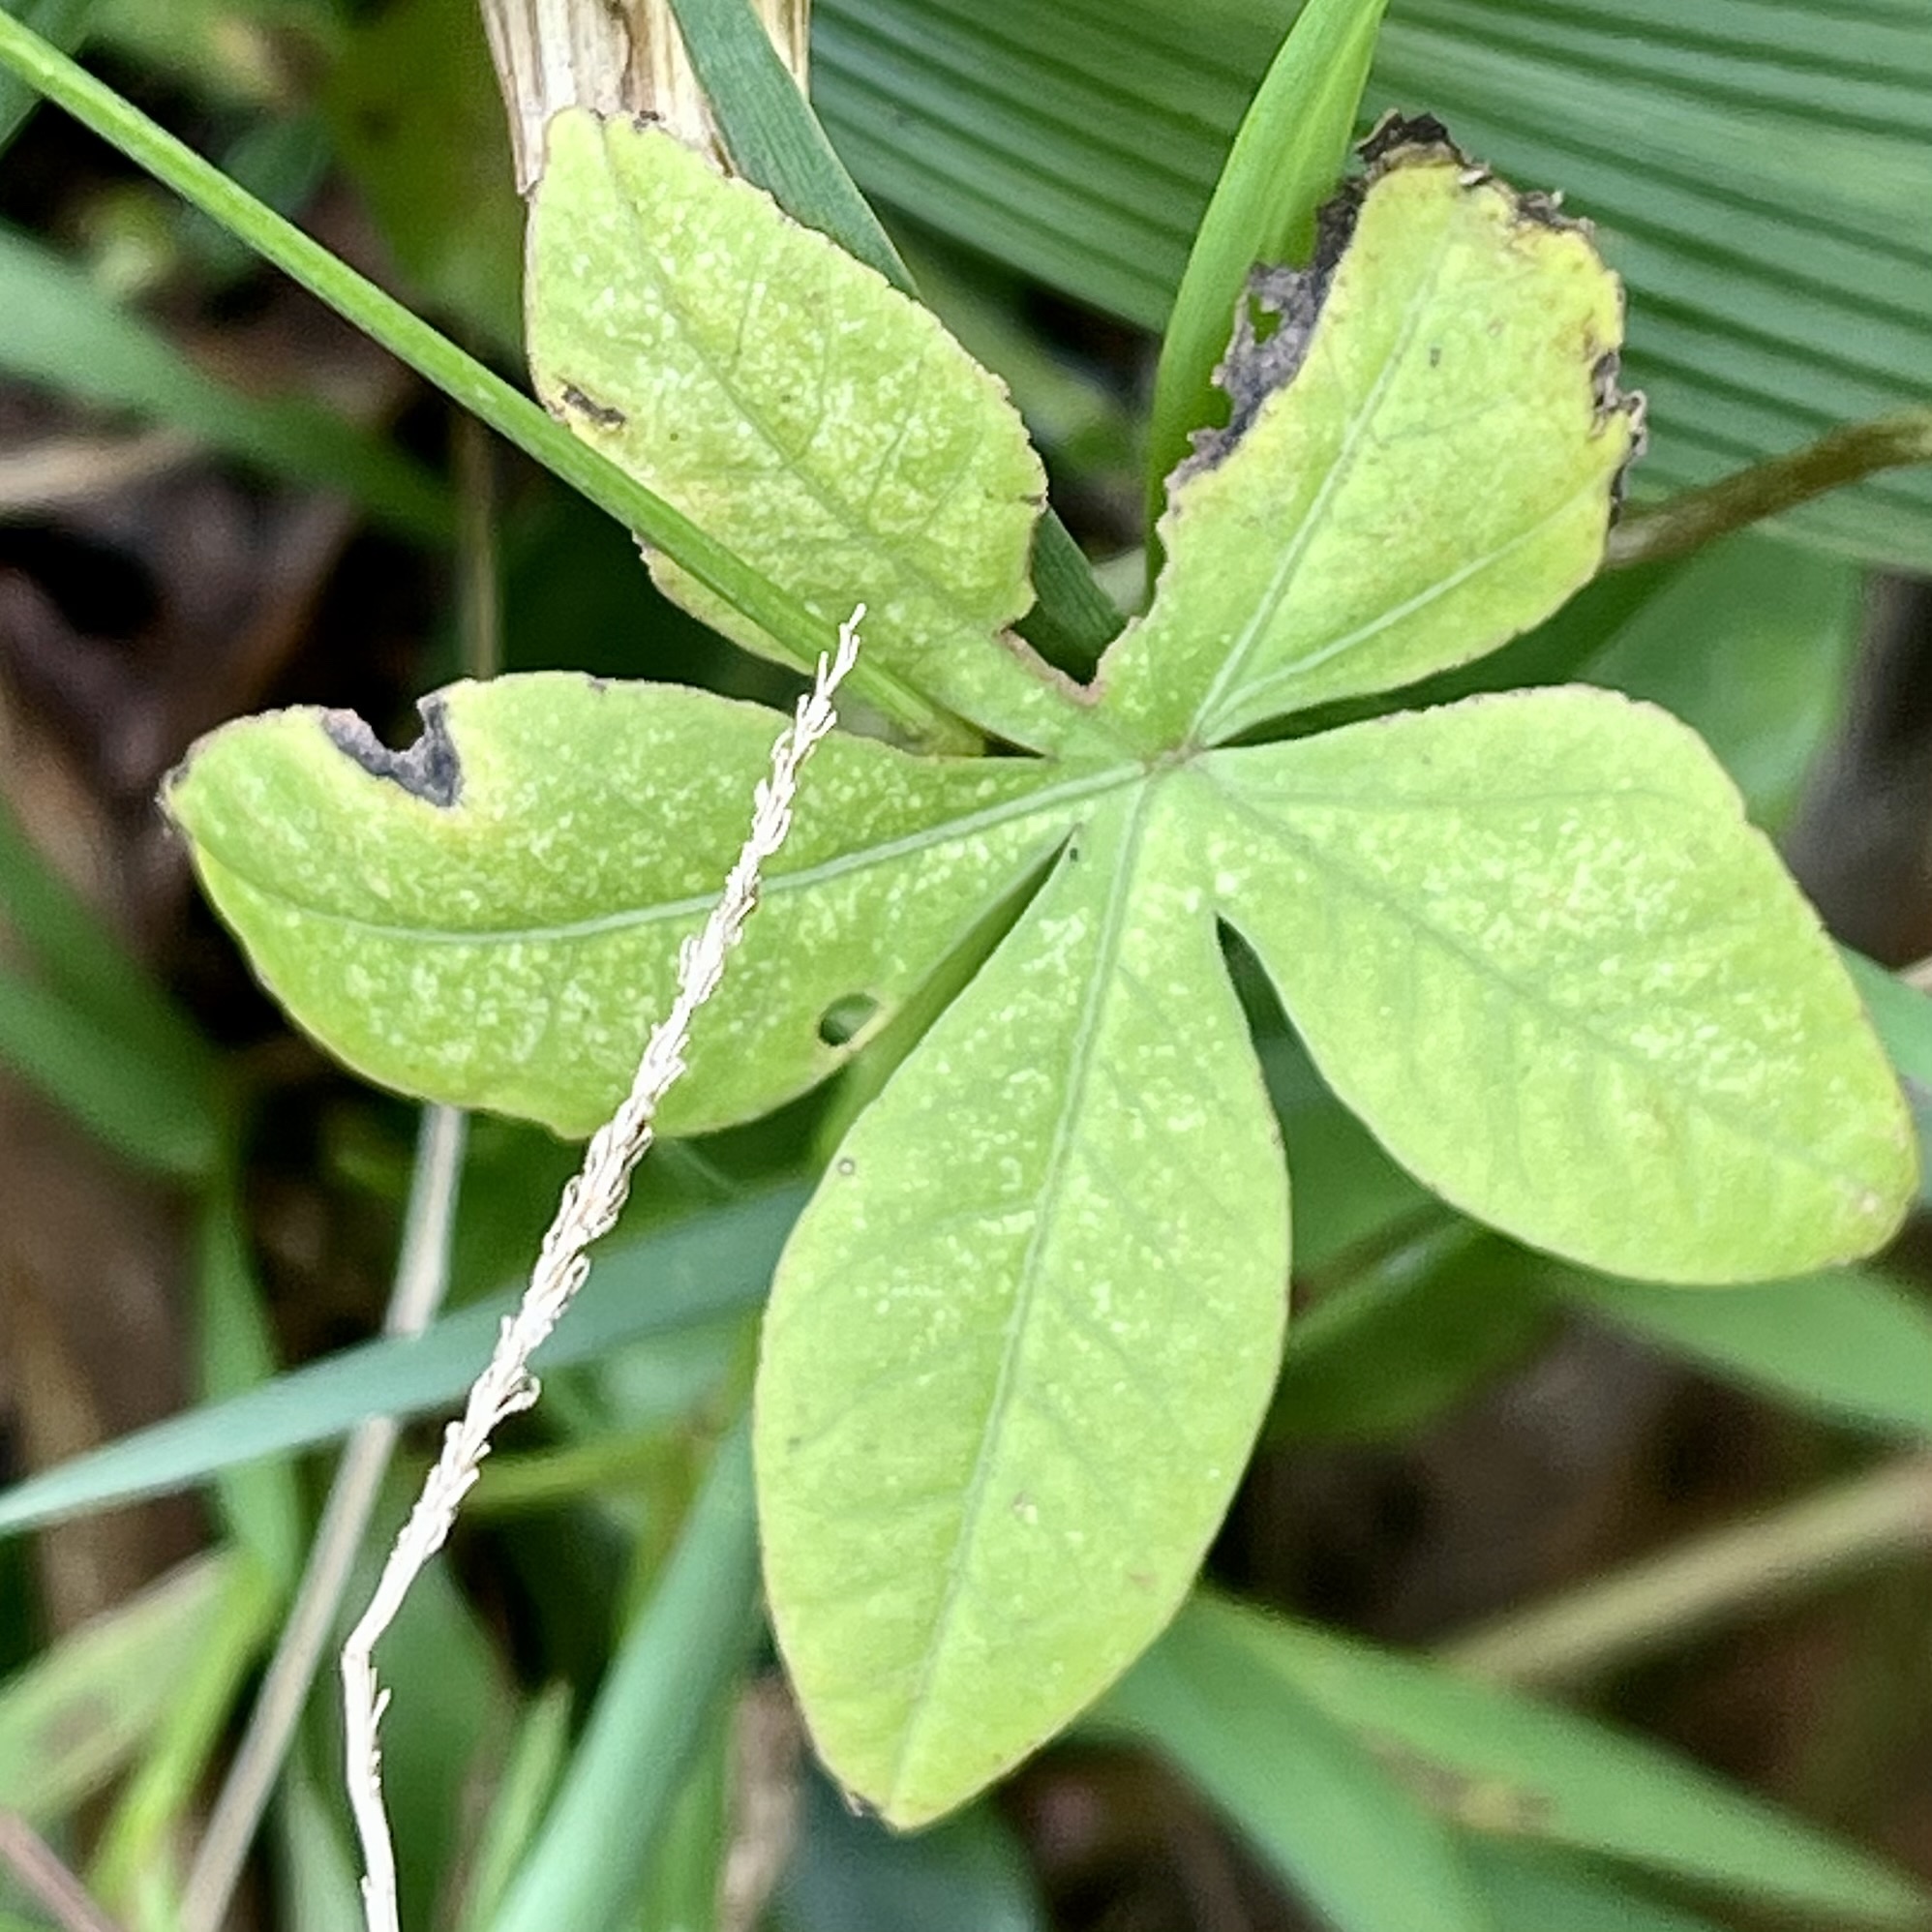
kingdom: Plantae
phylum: Tracheophyta
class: Magnoliopsida
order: Solanales
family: Convolvulaceae
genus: Ipomoea
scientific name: Ipomoea cairica
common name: Mile a minute vine
